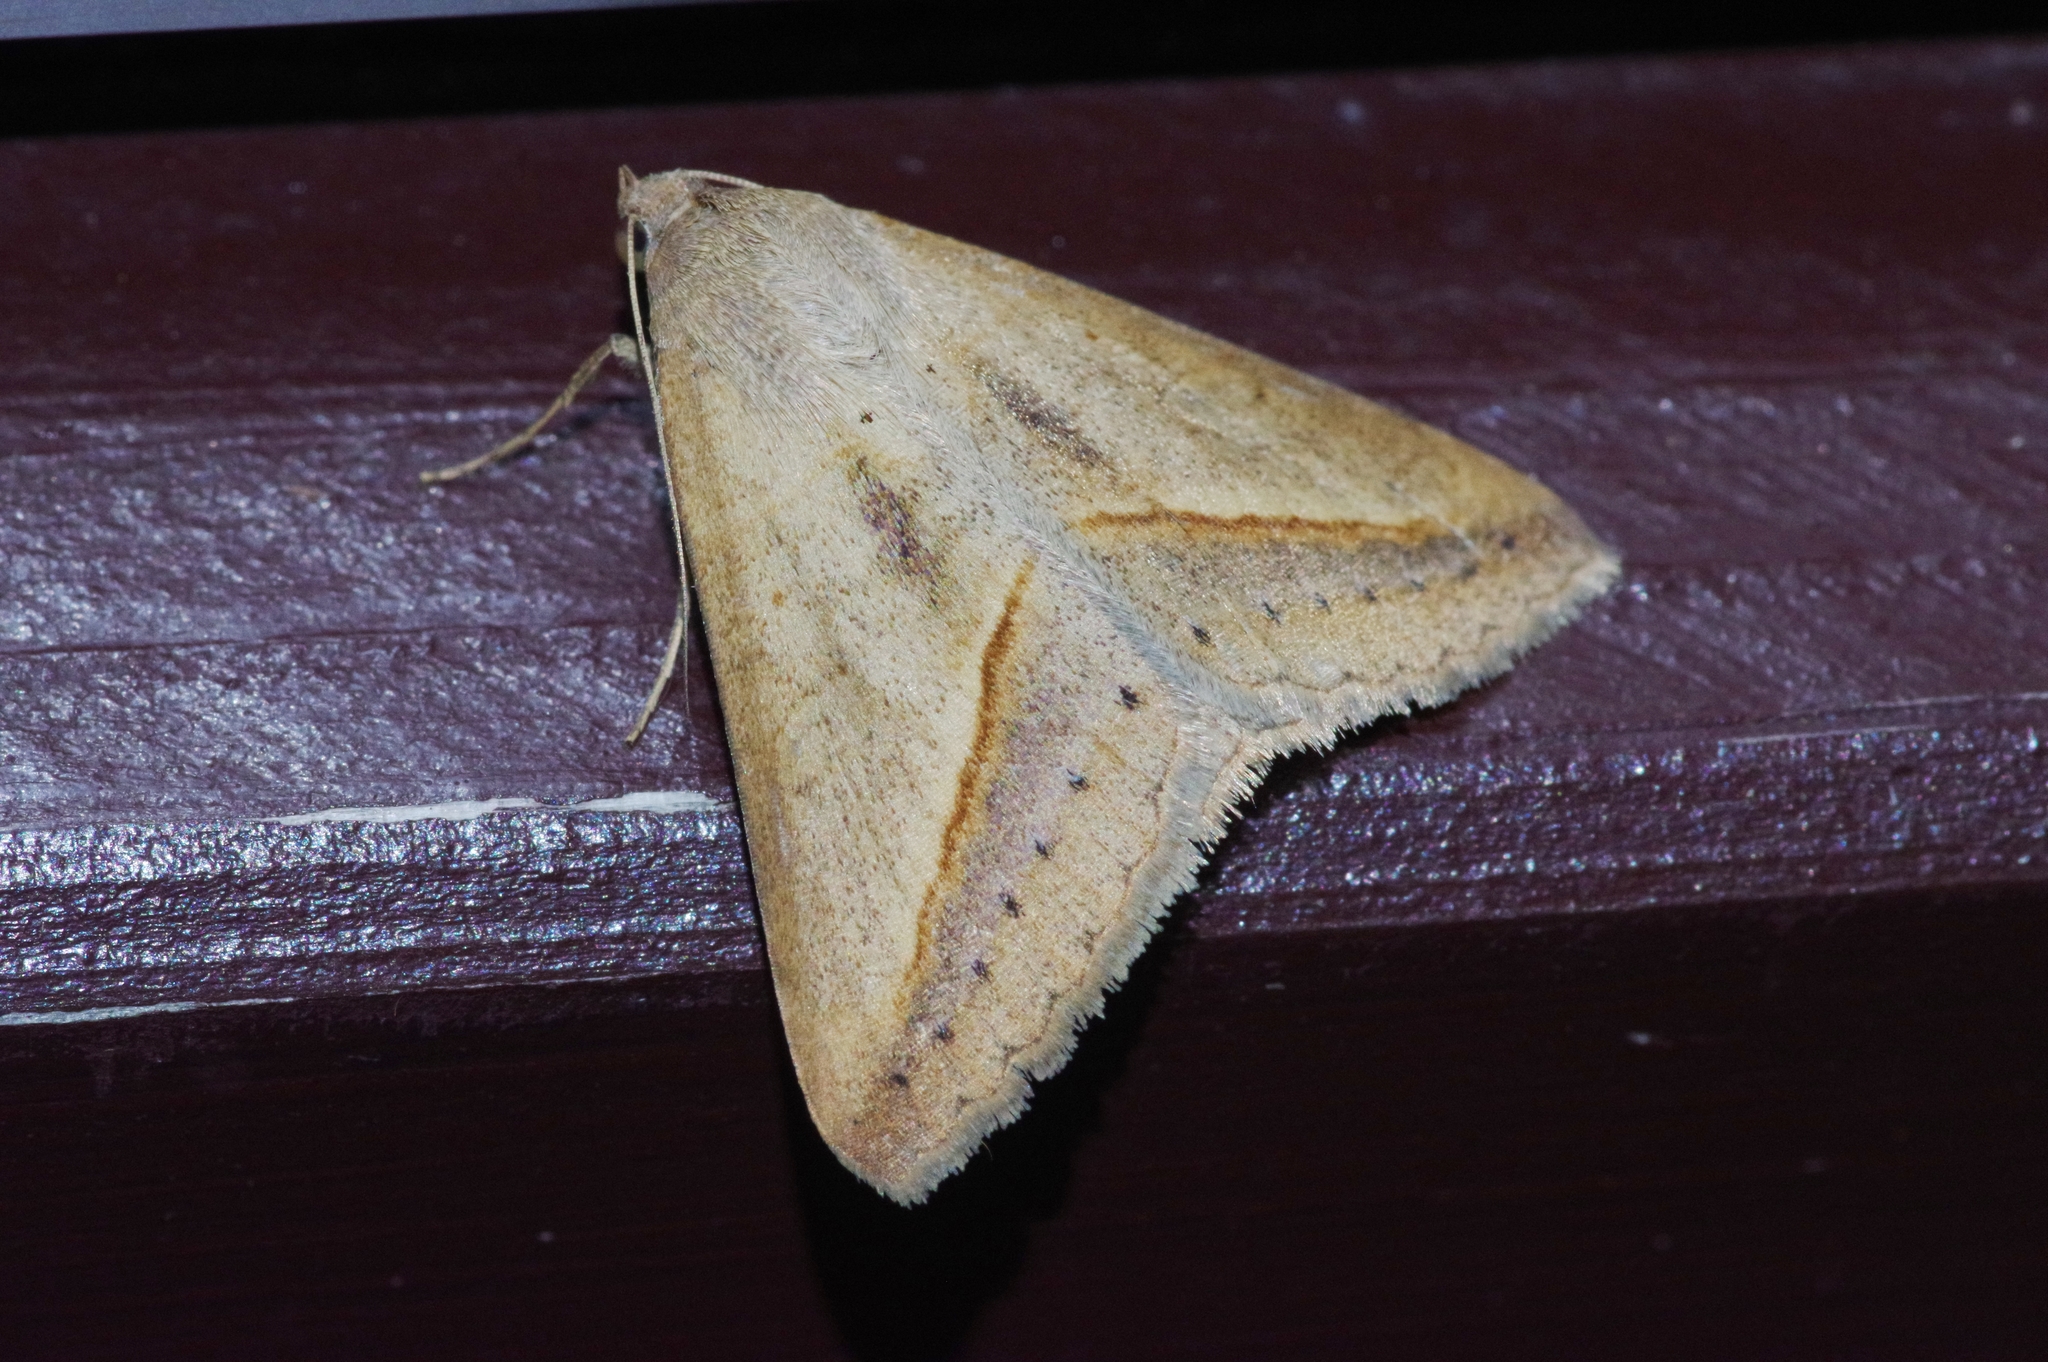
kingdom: Animalia
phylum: Arthropoda
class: Insecta
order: Lepidoptera
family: Erebidae
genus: Mocis
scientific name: Mocis frugalis
